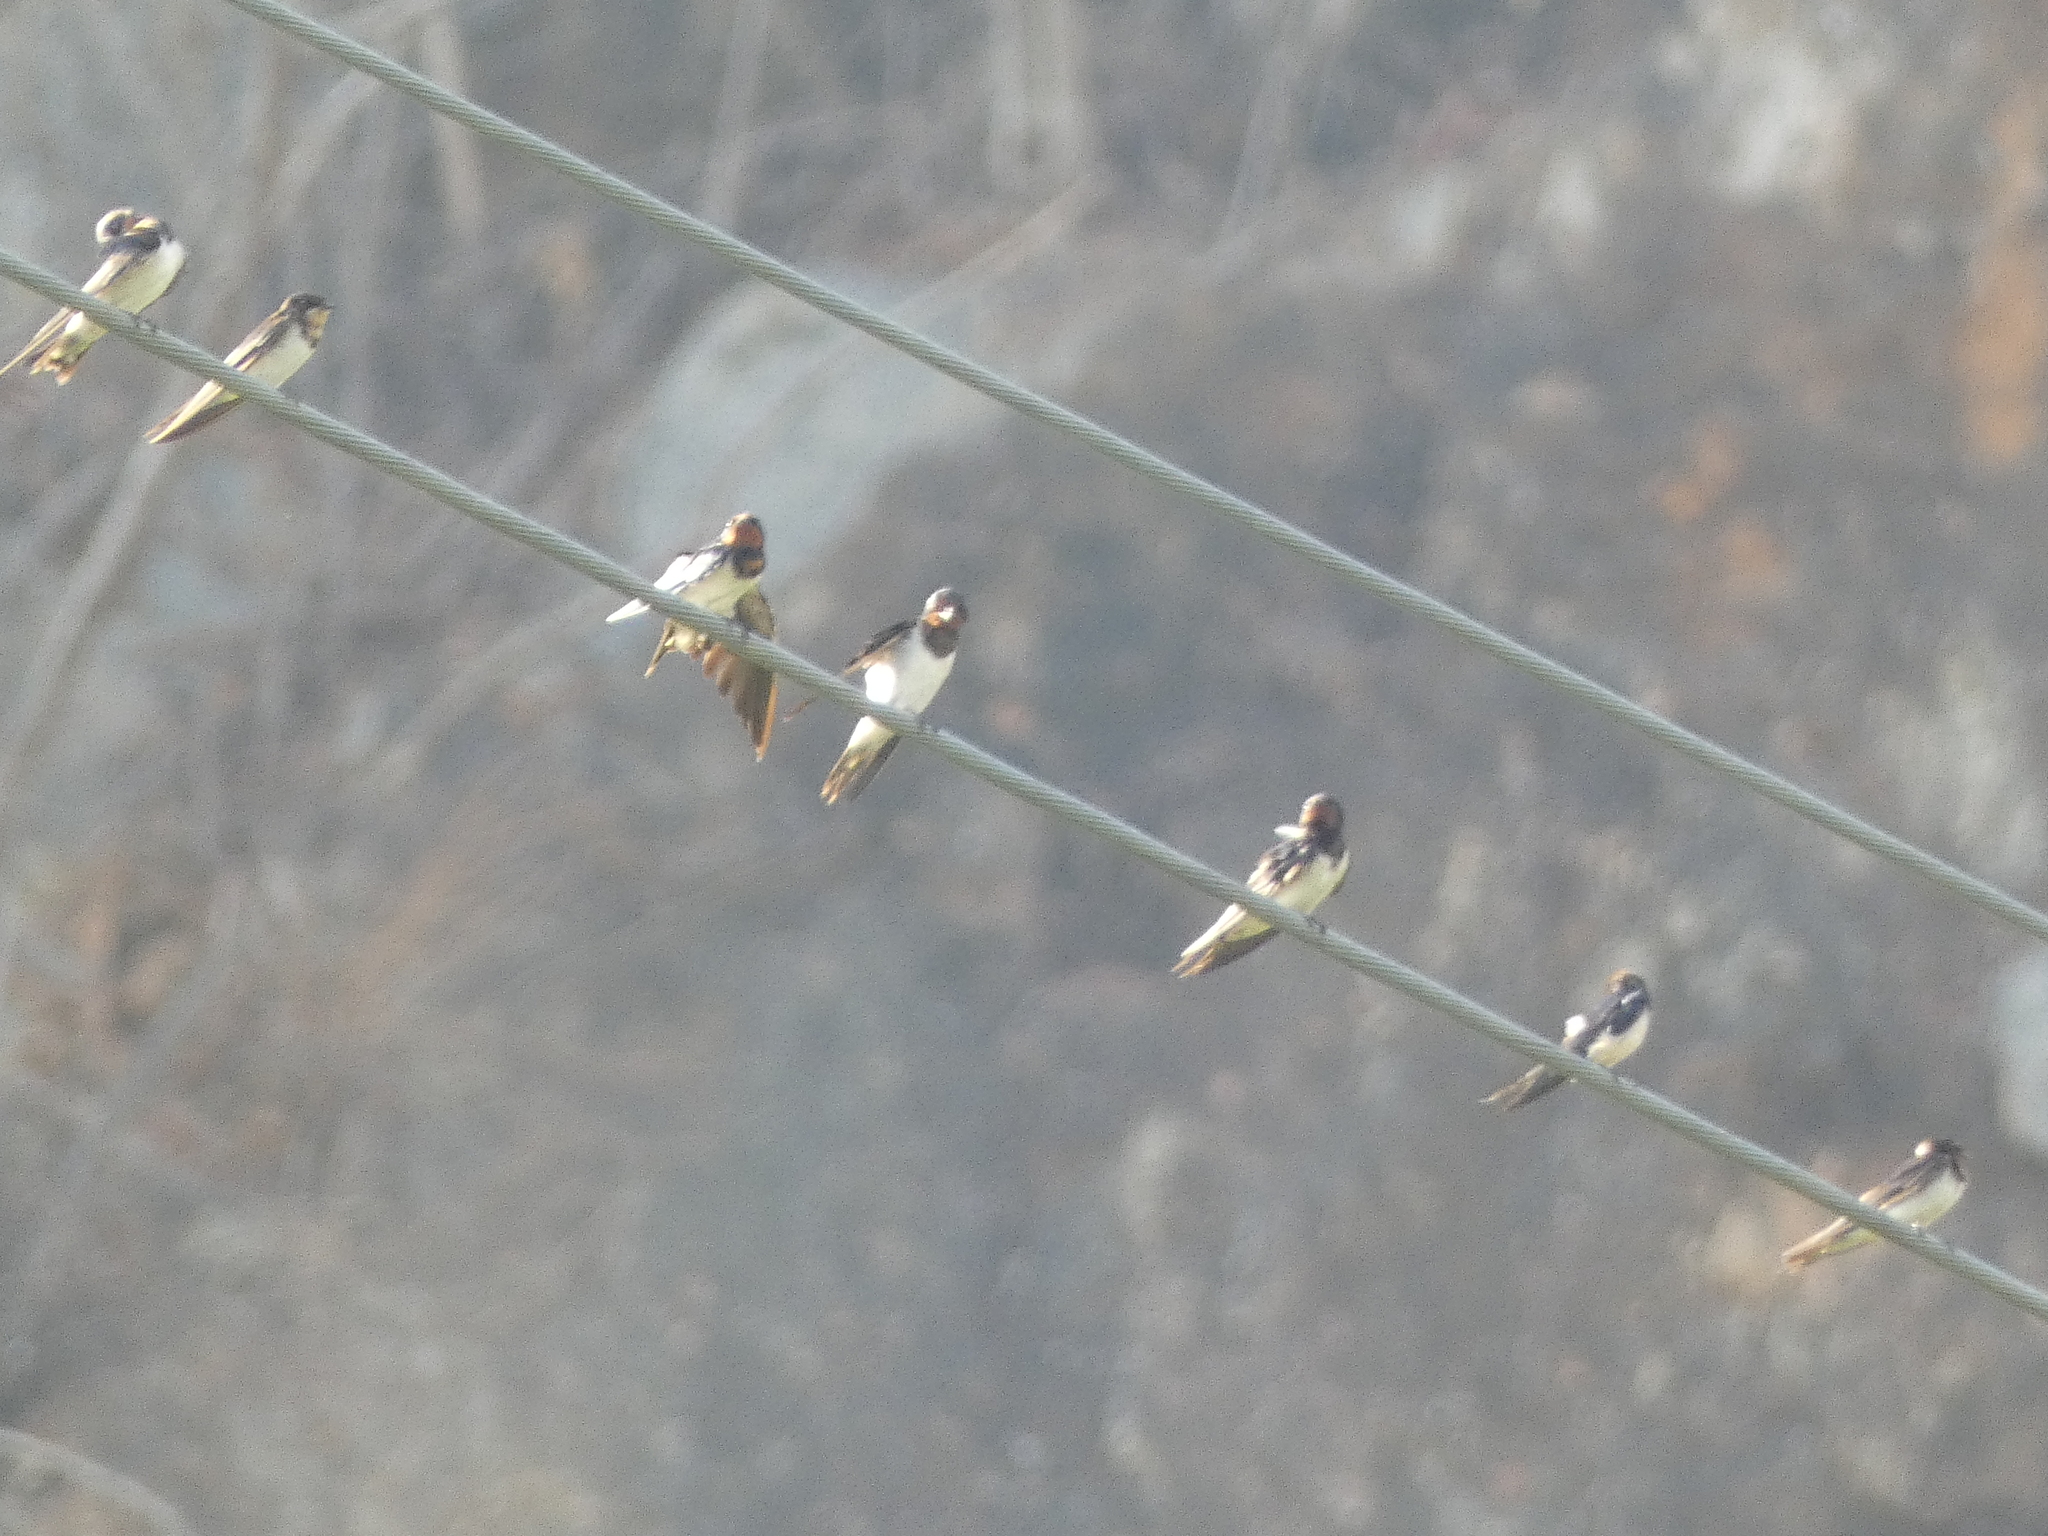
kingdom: Animalia
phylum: Chordata
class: Aves
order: Passeriformes
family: Hirundinidae
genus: Hirundo
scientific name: Hirundo rustica
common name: Barn swallow
